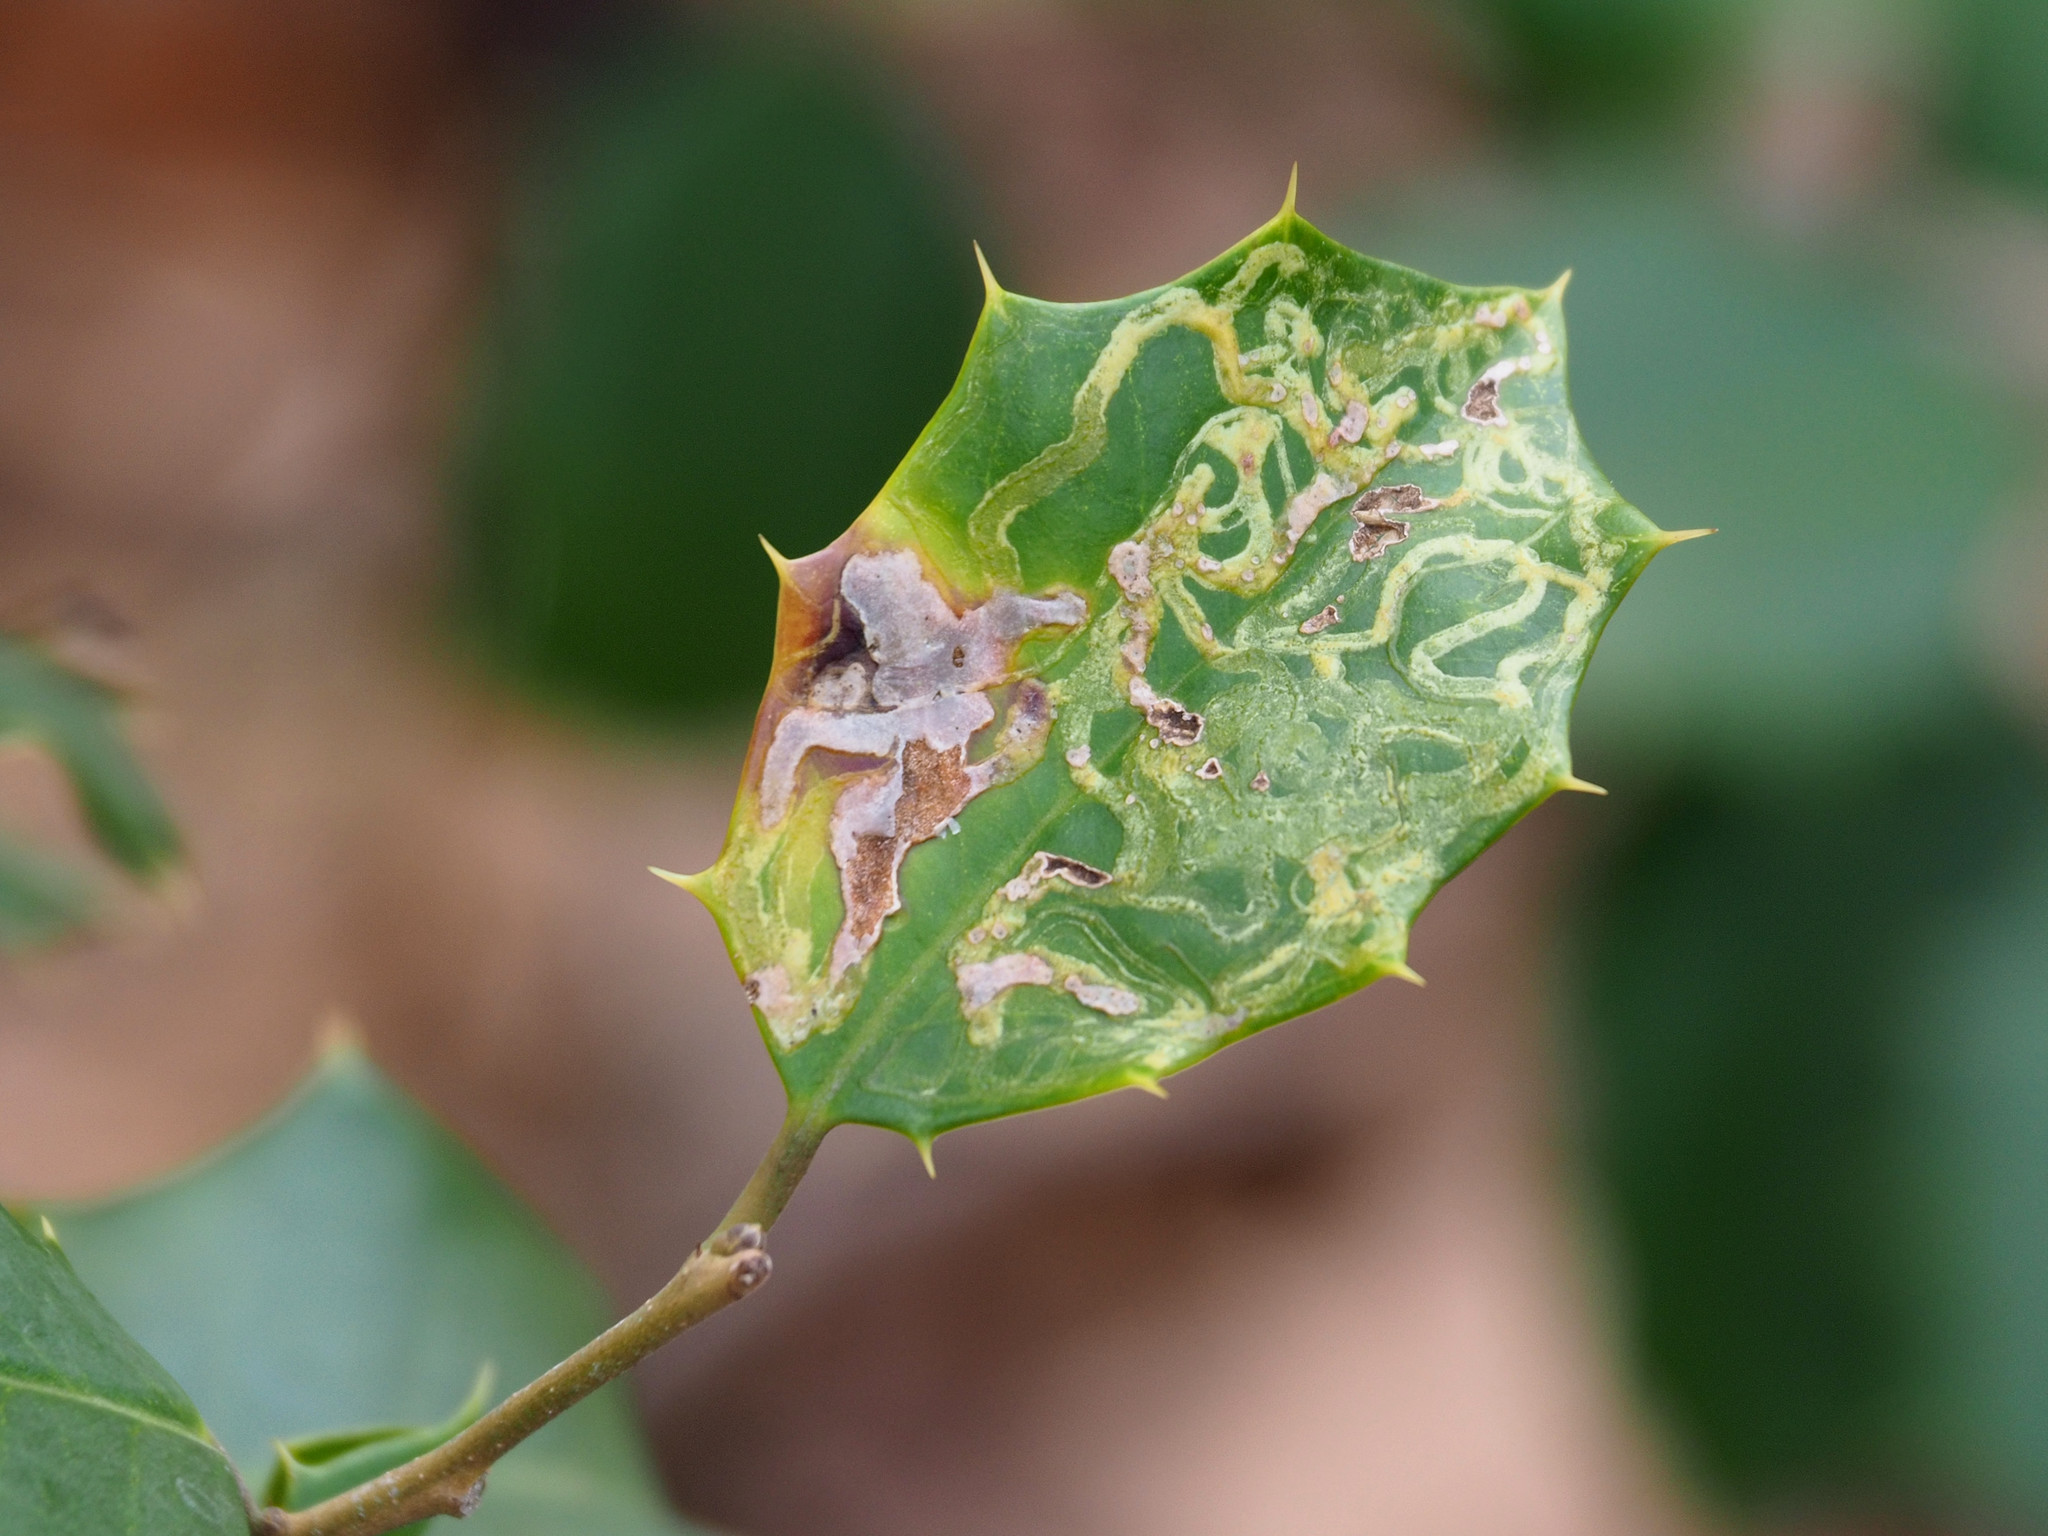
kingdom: Animalia
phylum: Arthropoda
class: Insecta
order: Diptera
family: Agromyzidae
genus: Phytomyza
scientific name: Phytomyza opacae
